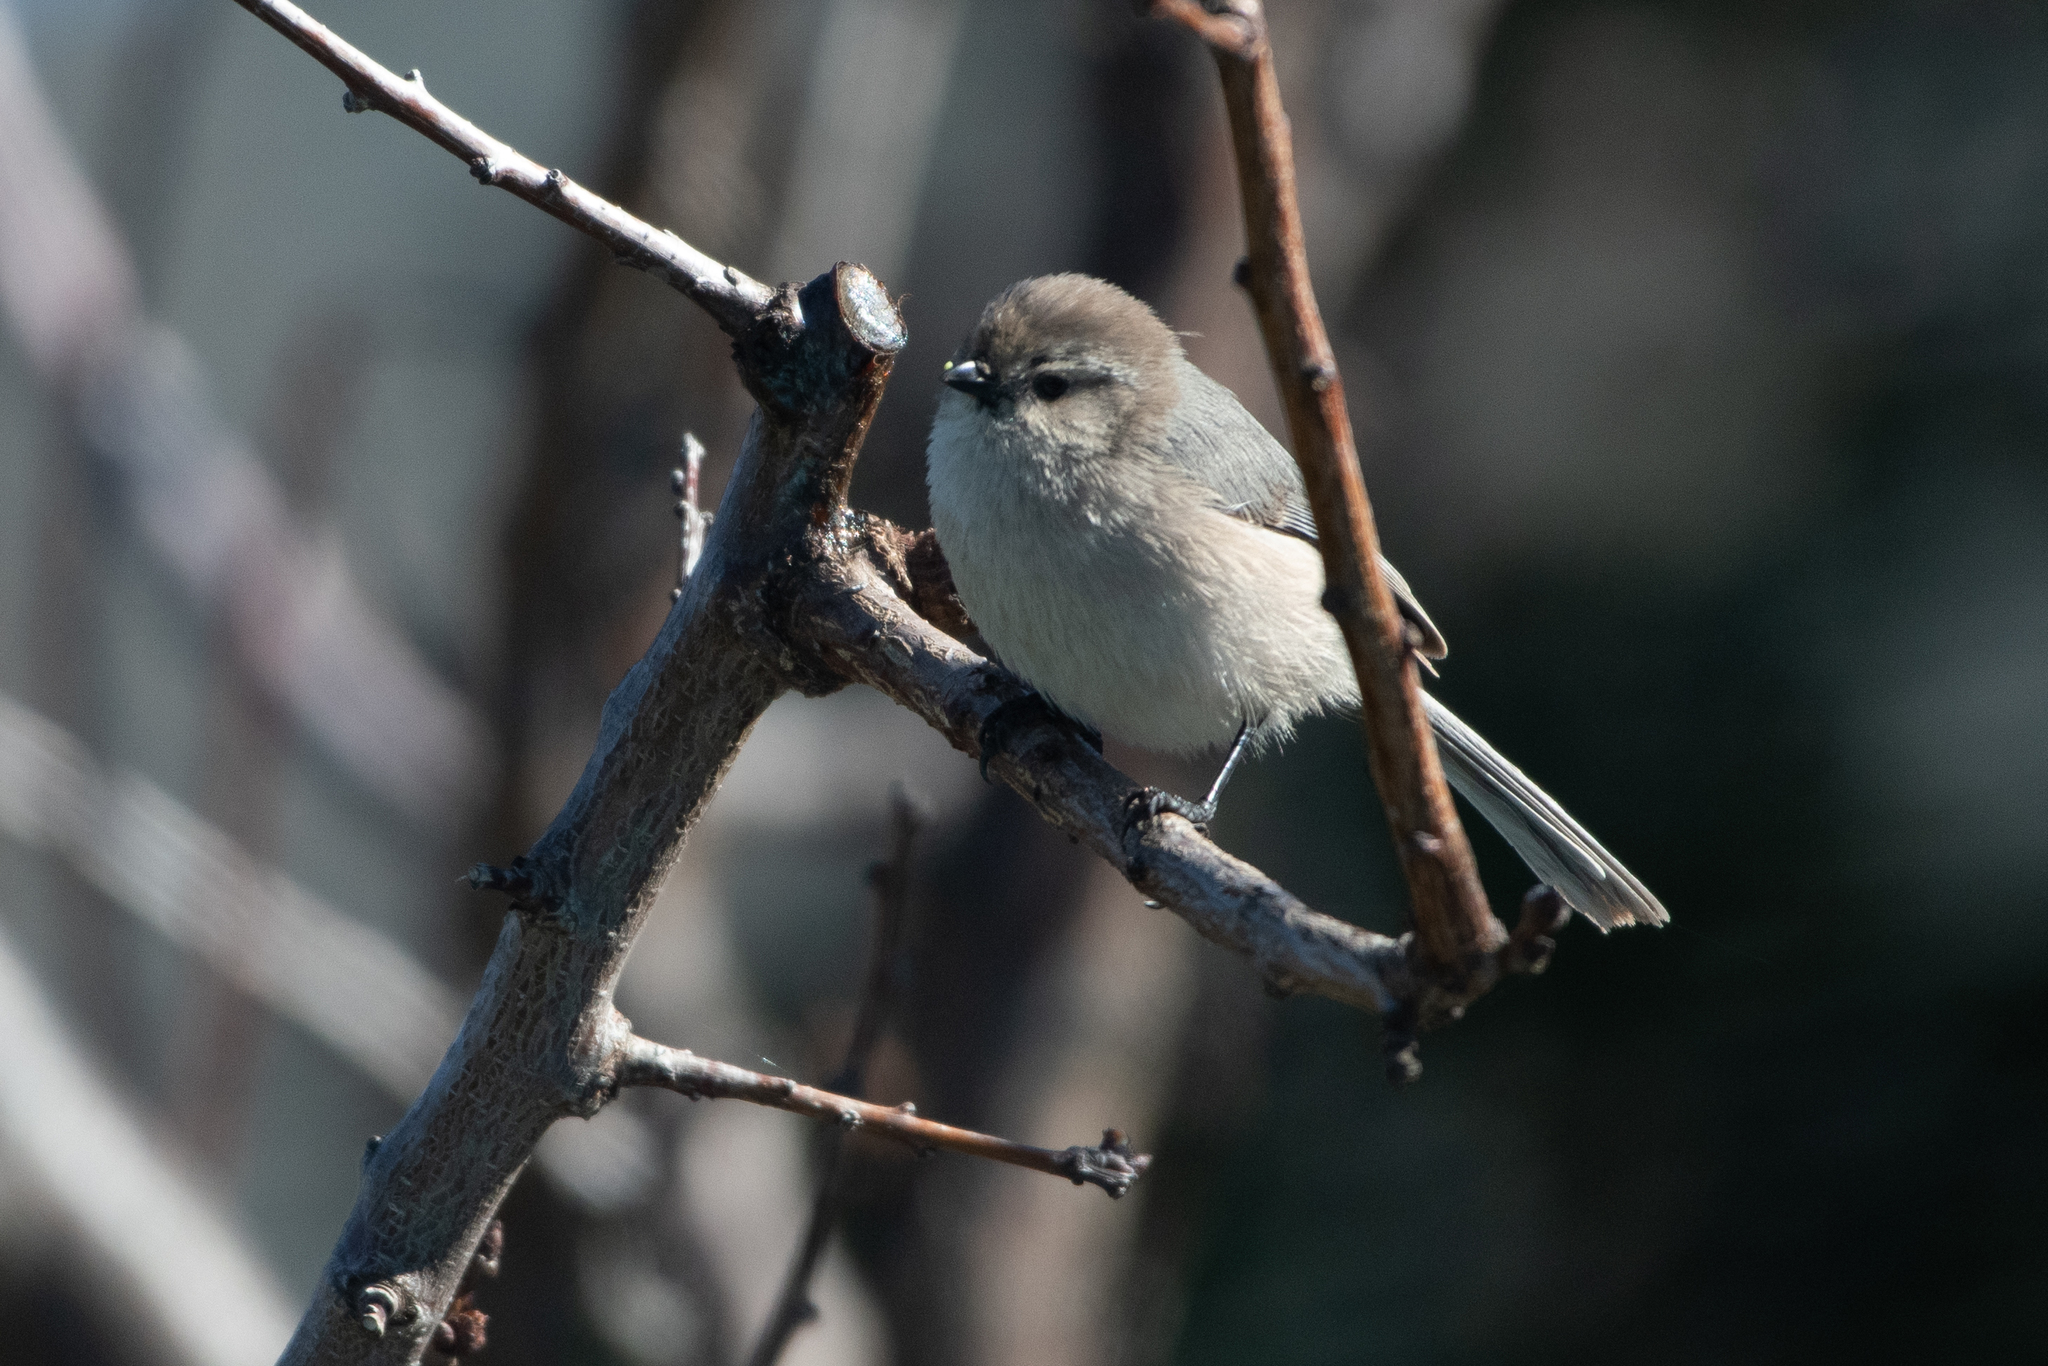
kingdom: Animalia
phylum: Chordata
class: Aves
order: Passeriformes
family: Aegithalidae
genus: Psaltriparus
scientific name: Psaltriparus minimus
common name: American bushtit
